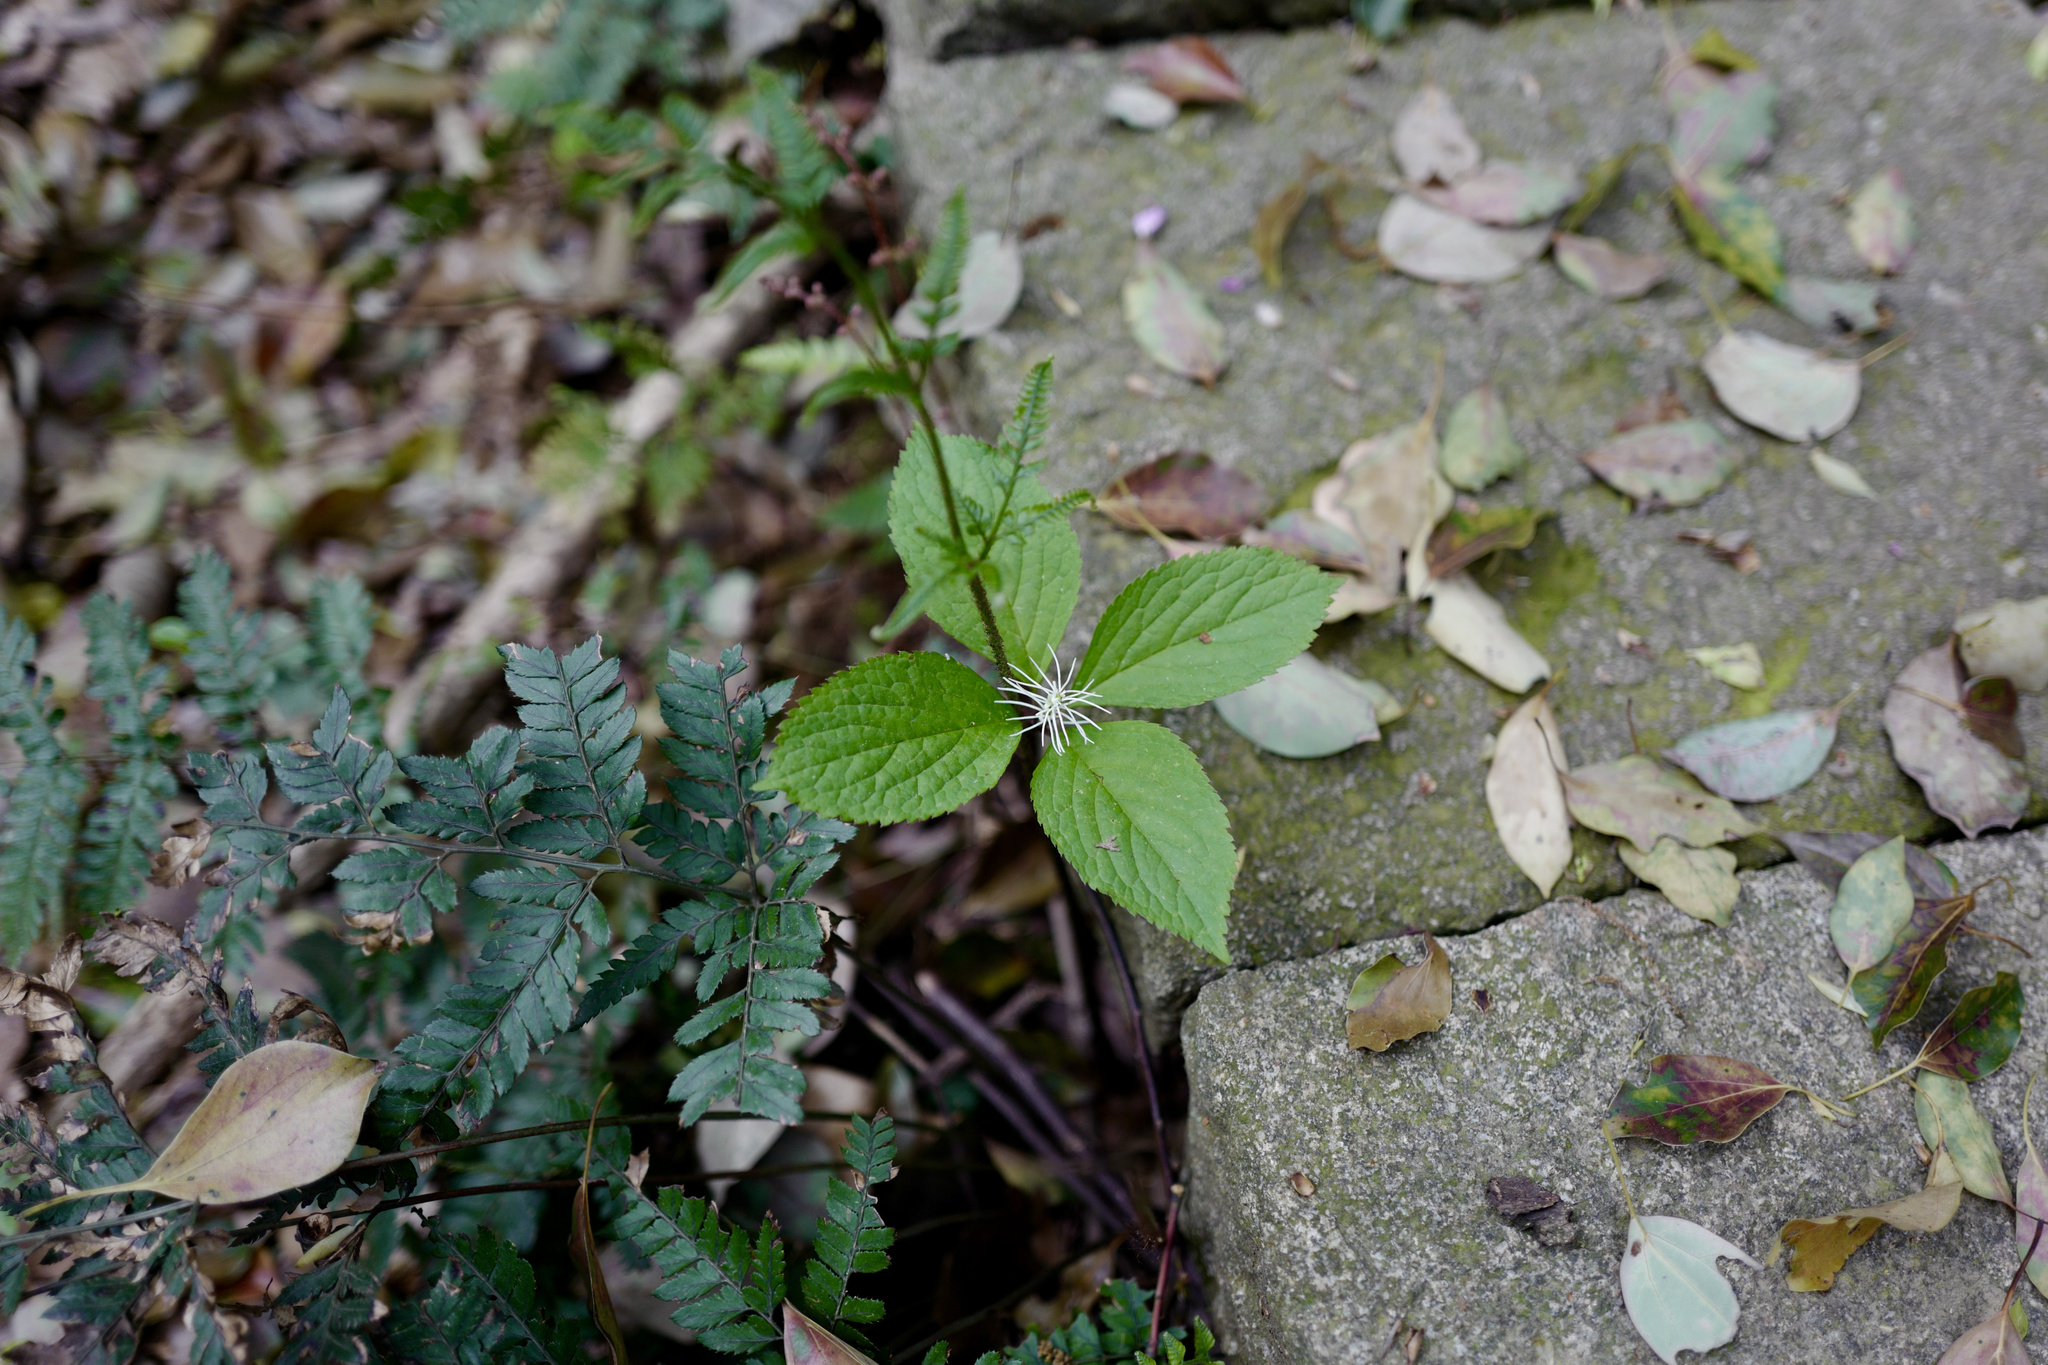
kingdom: Plantae
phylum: Tracheophyta
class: Magnoliopsida
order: Chloranthales
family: Chloranthaceae
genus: Chloranthus
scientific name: Chloranthus fortunei
